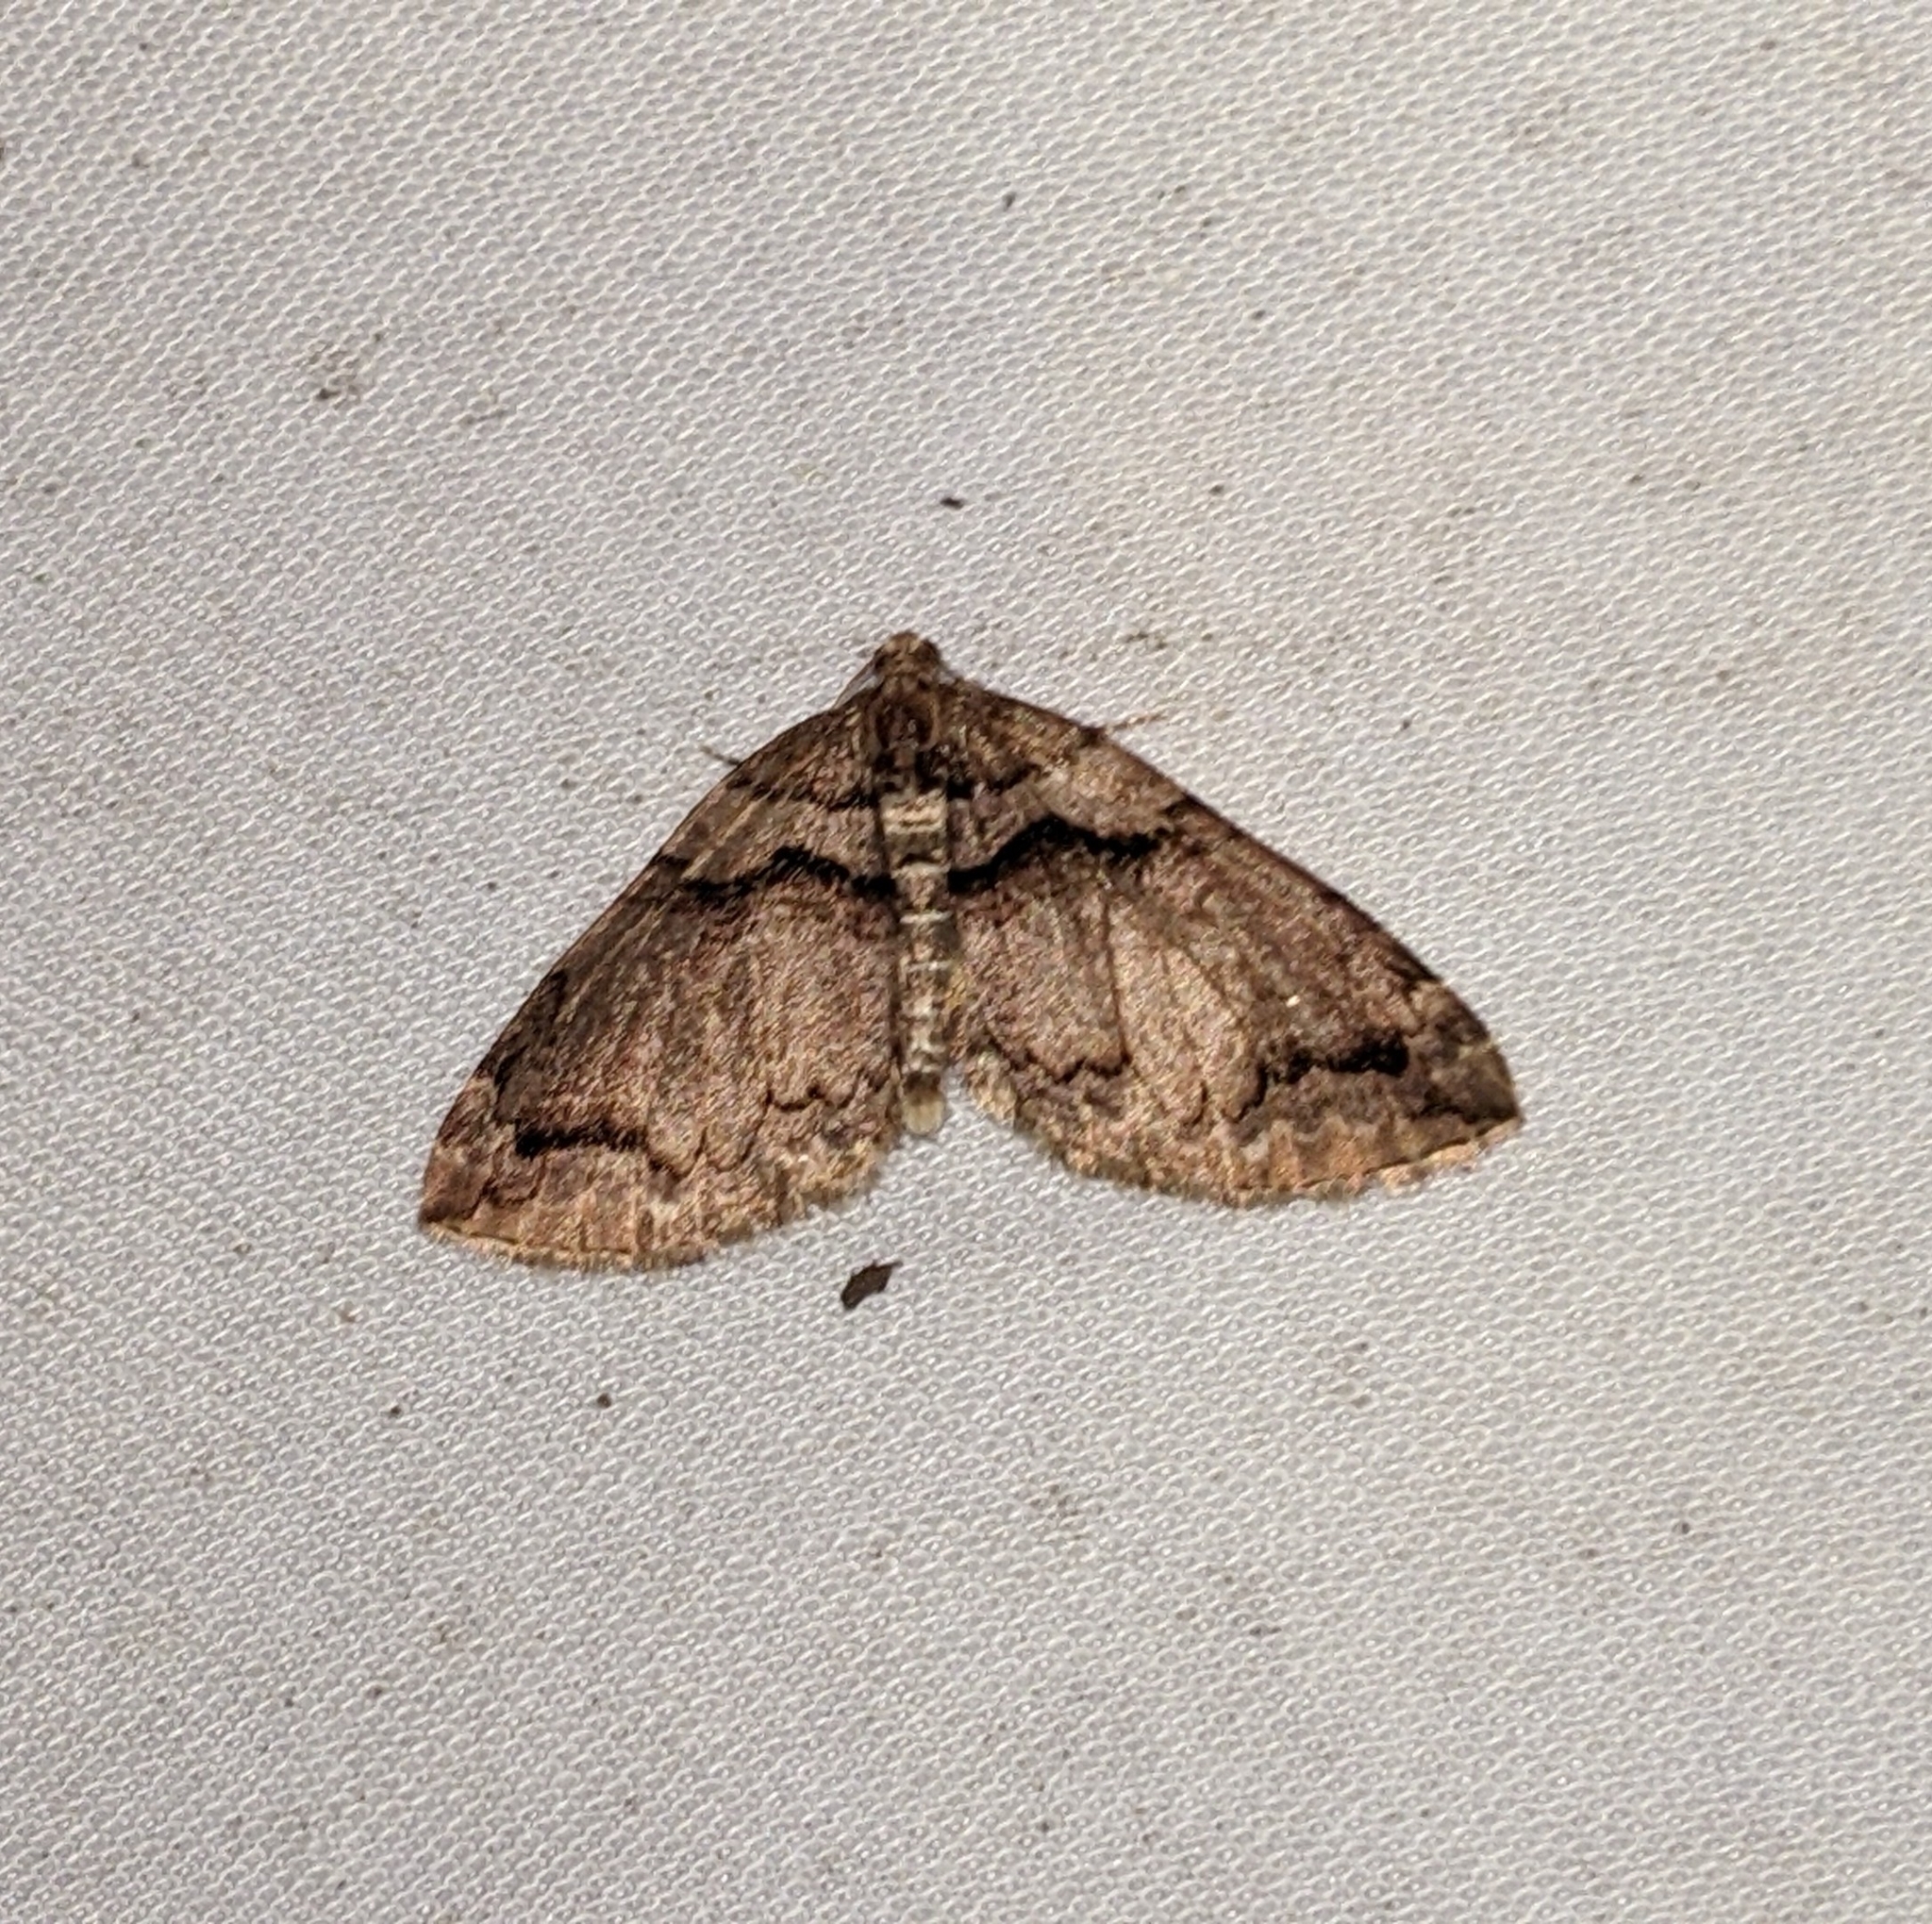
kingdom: Animalia
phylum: Arthropoda
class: Insecta
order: Lepidoptera
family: Geometridae
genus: Anticlea
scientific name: Anticlea vasiliata
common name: Variable carpet
